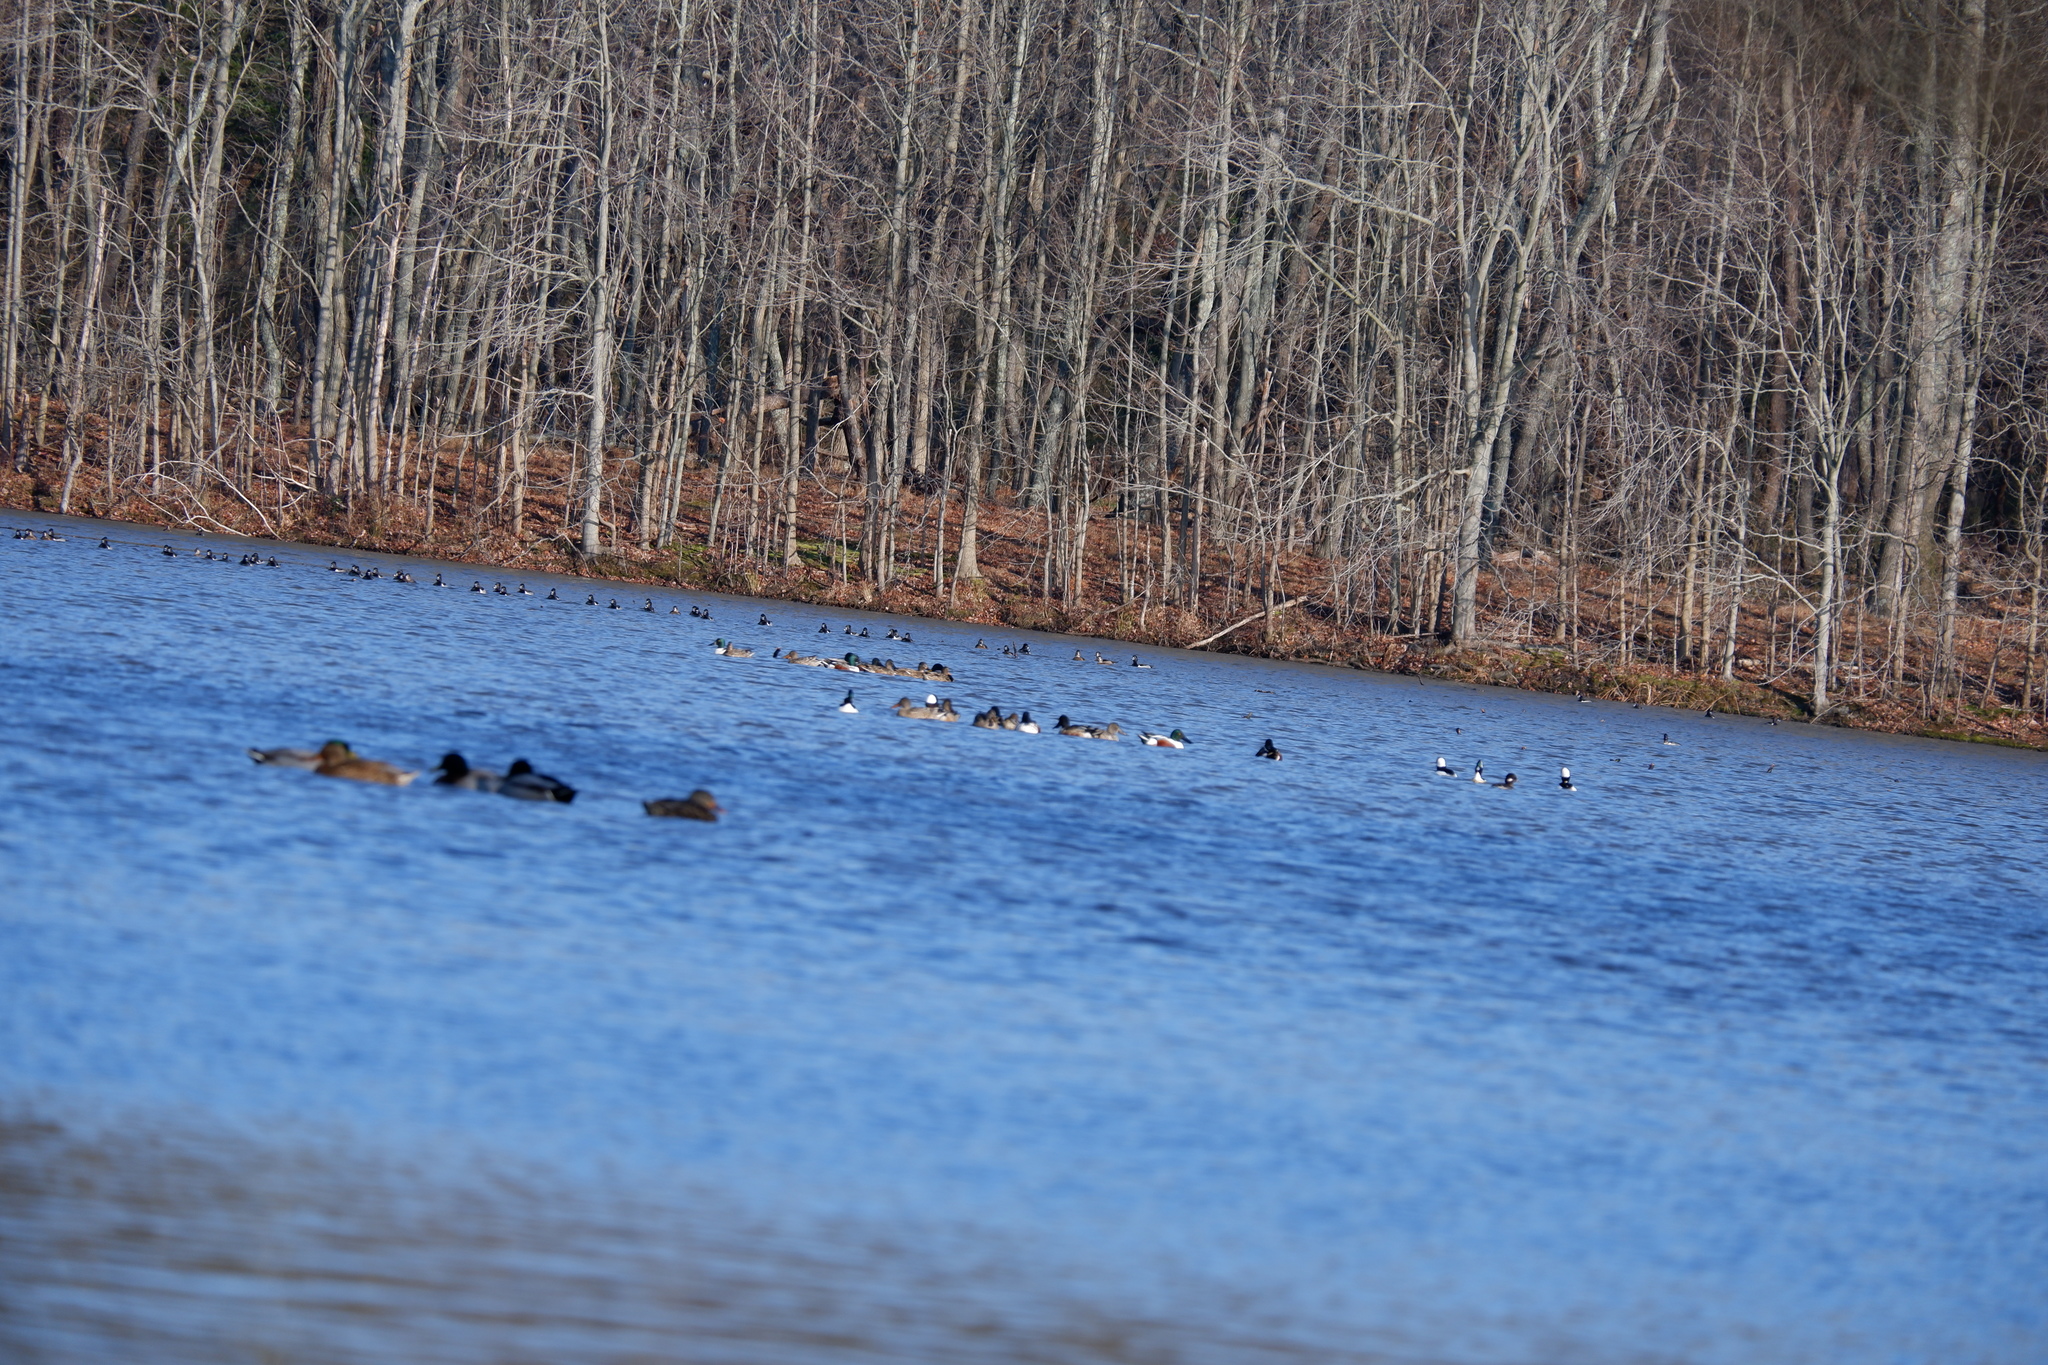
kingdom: Animalia
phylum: Chordata
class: Aves
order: Anseriformes
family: Anatidae
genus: Spatula
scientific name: Spatula clypeata
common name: Northern shoveler
